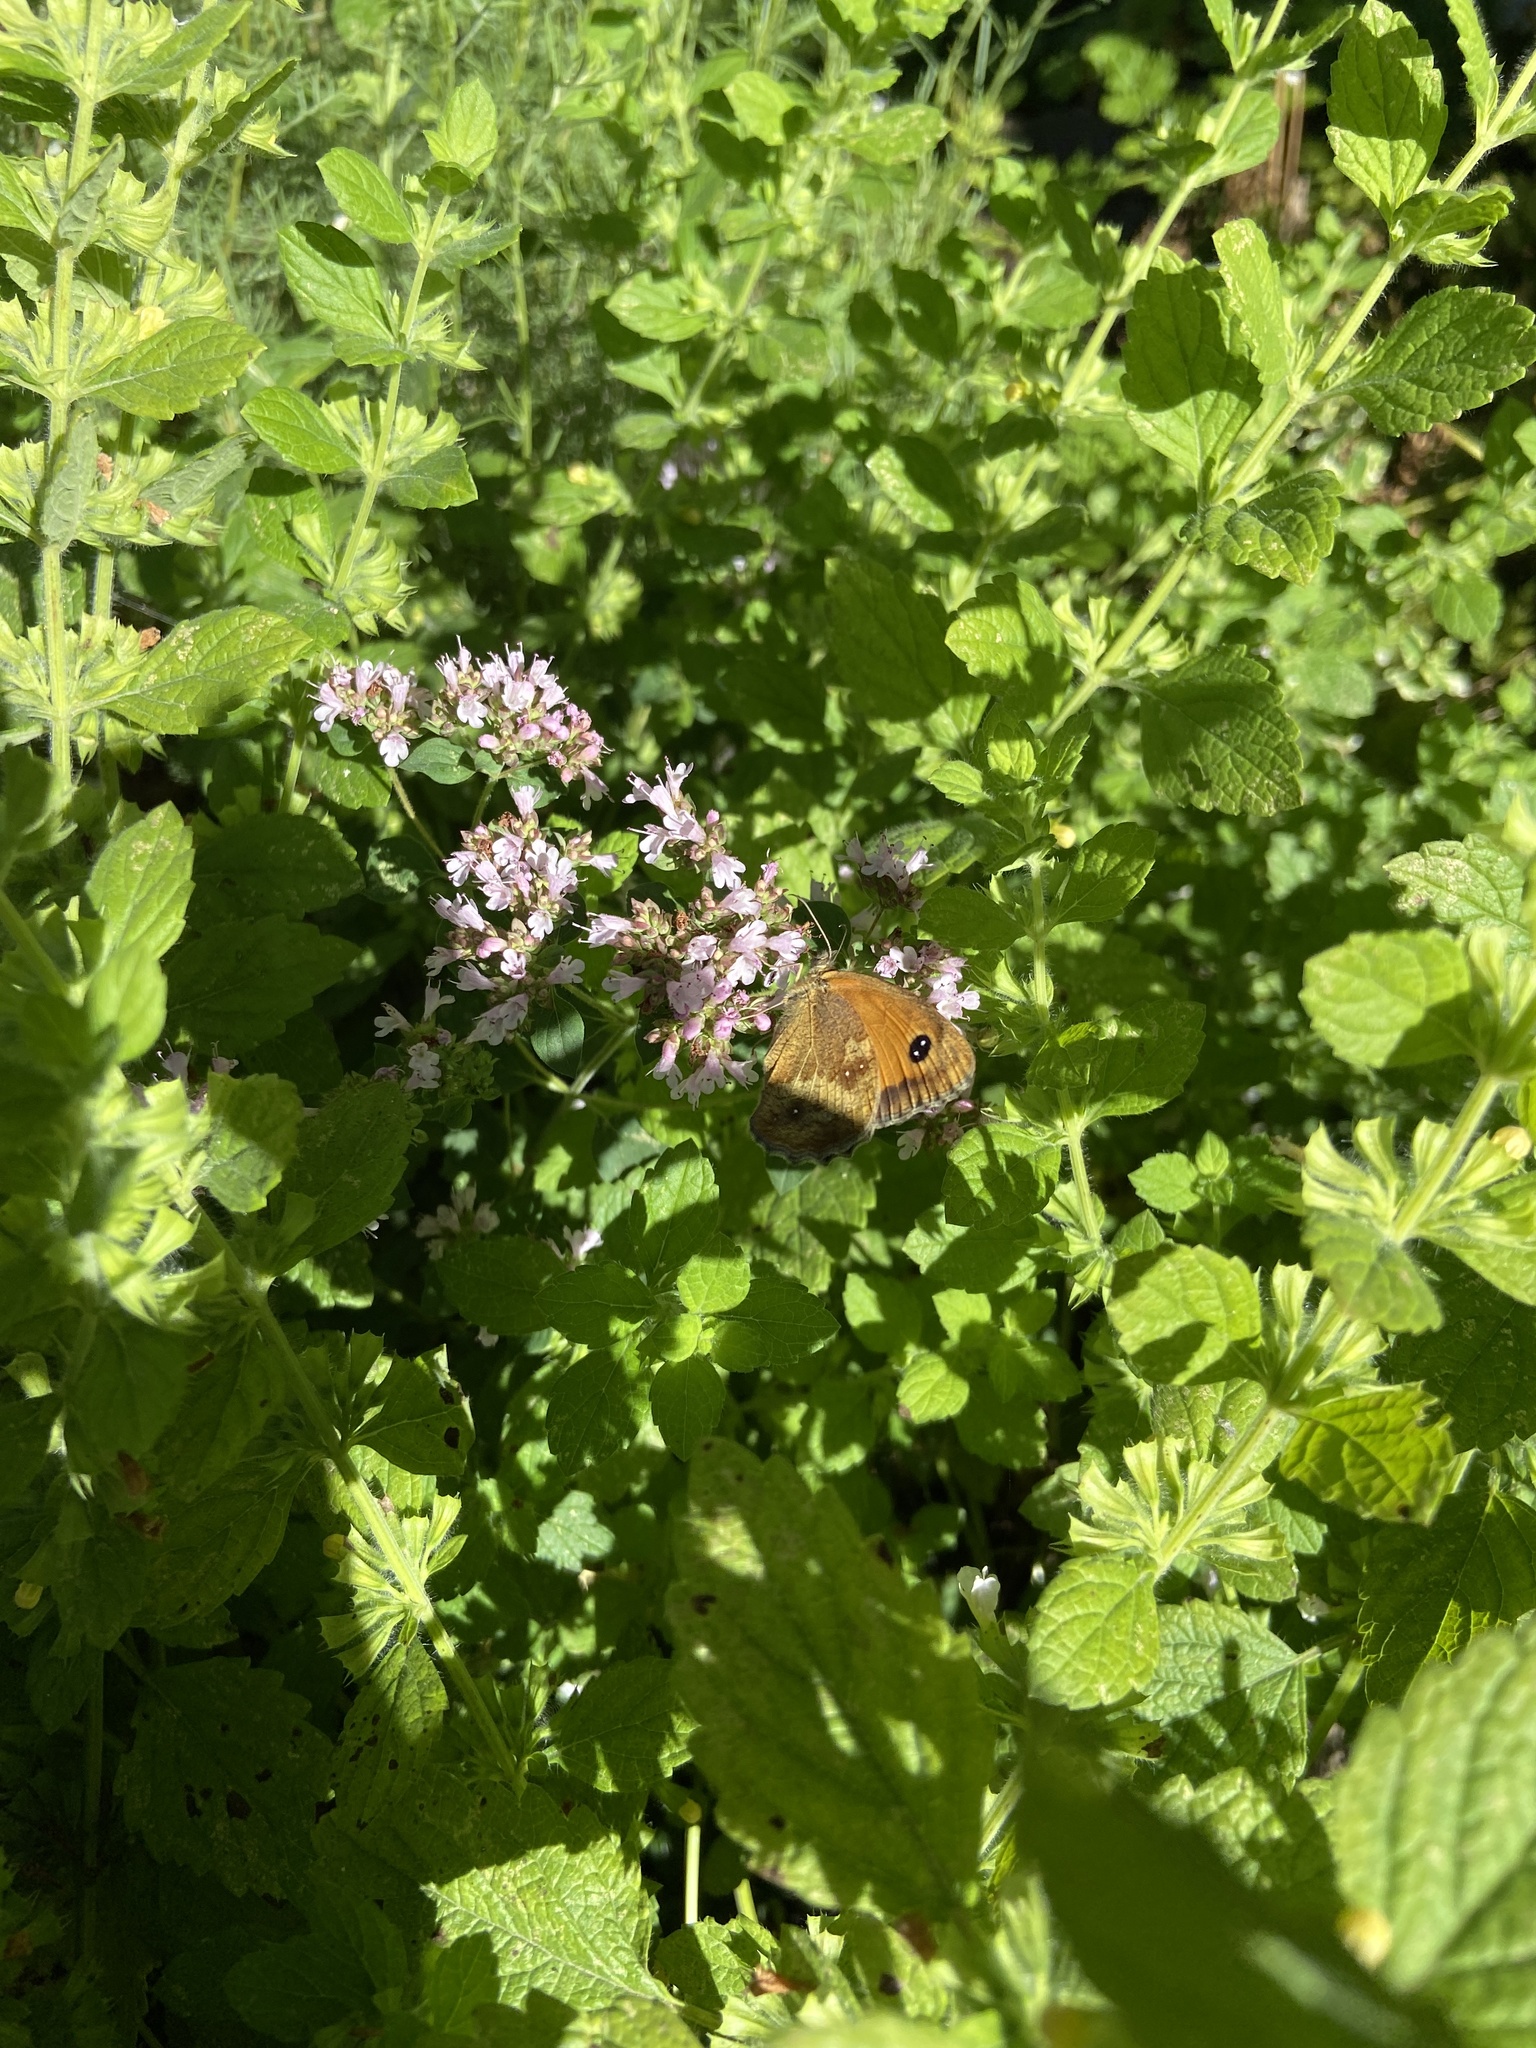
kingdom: Animalia
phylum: Arthropoda
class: Insecta
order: Lepidoptera
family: Nymphalidae
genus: Pyronia
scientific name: Pyronia tithonus
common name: Gatekeeper
